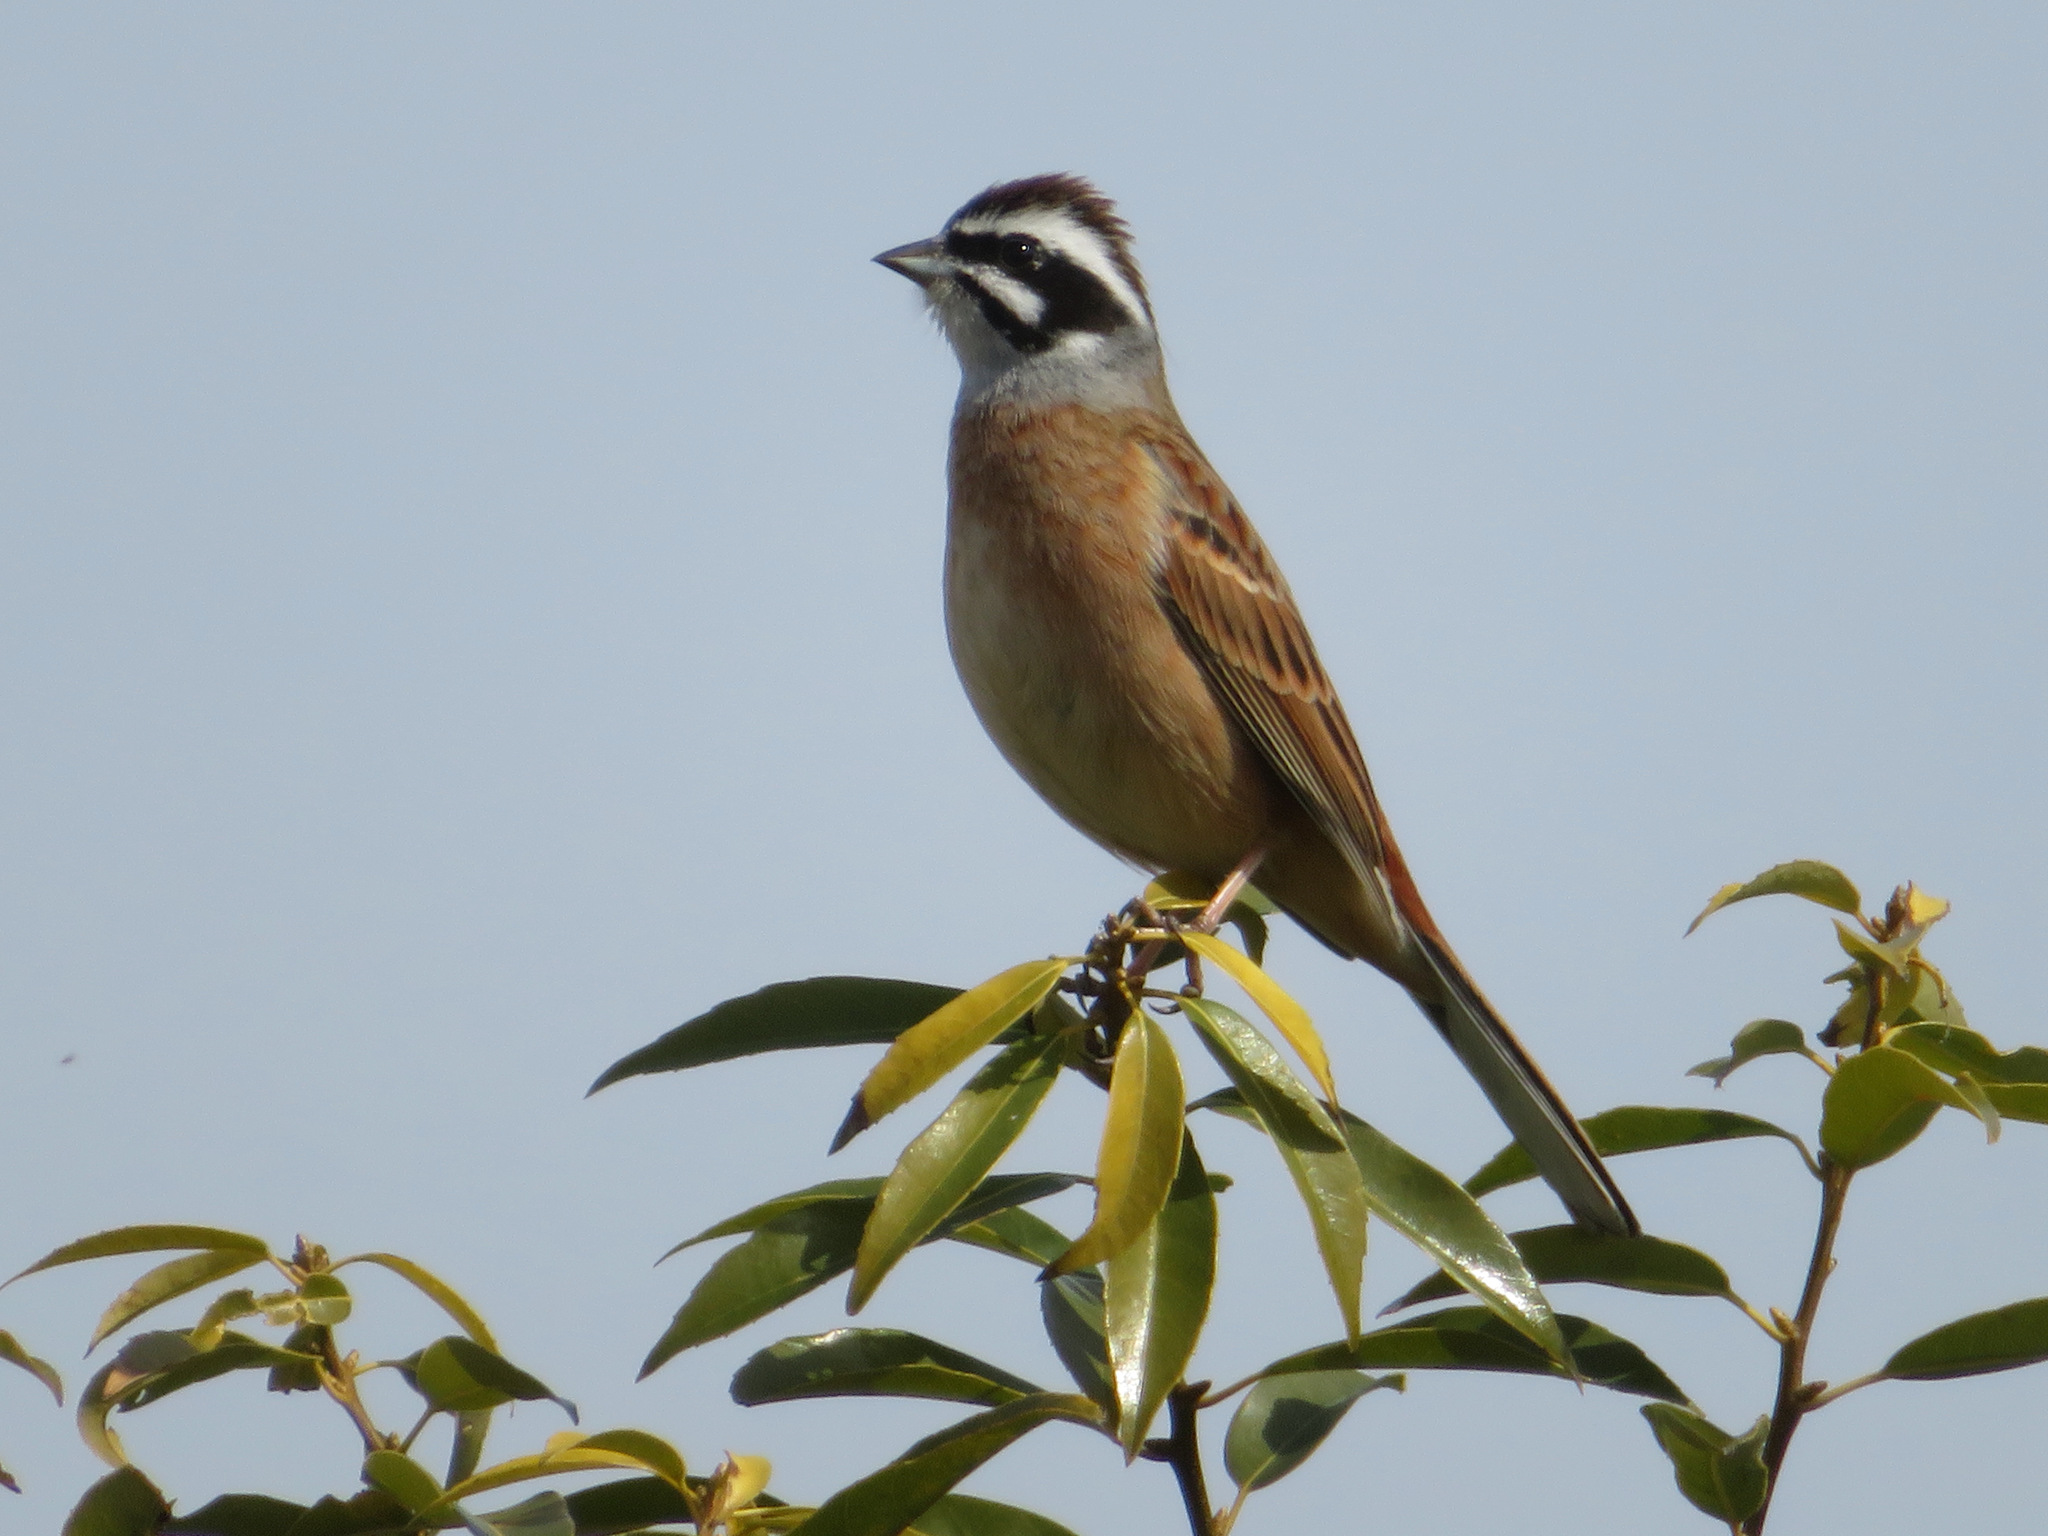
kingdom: Animalia
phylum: Chordata
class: Aves
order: Passeriformes
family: Emberizidae
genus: Emberiza
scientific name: Emberiza cioides
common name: Meadow bunting
